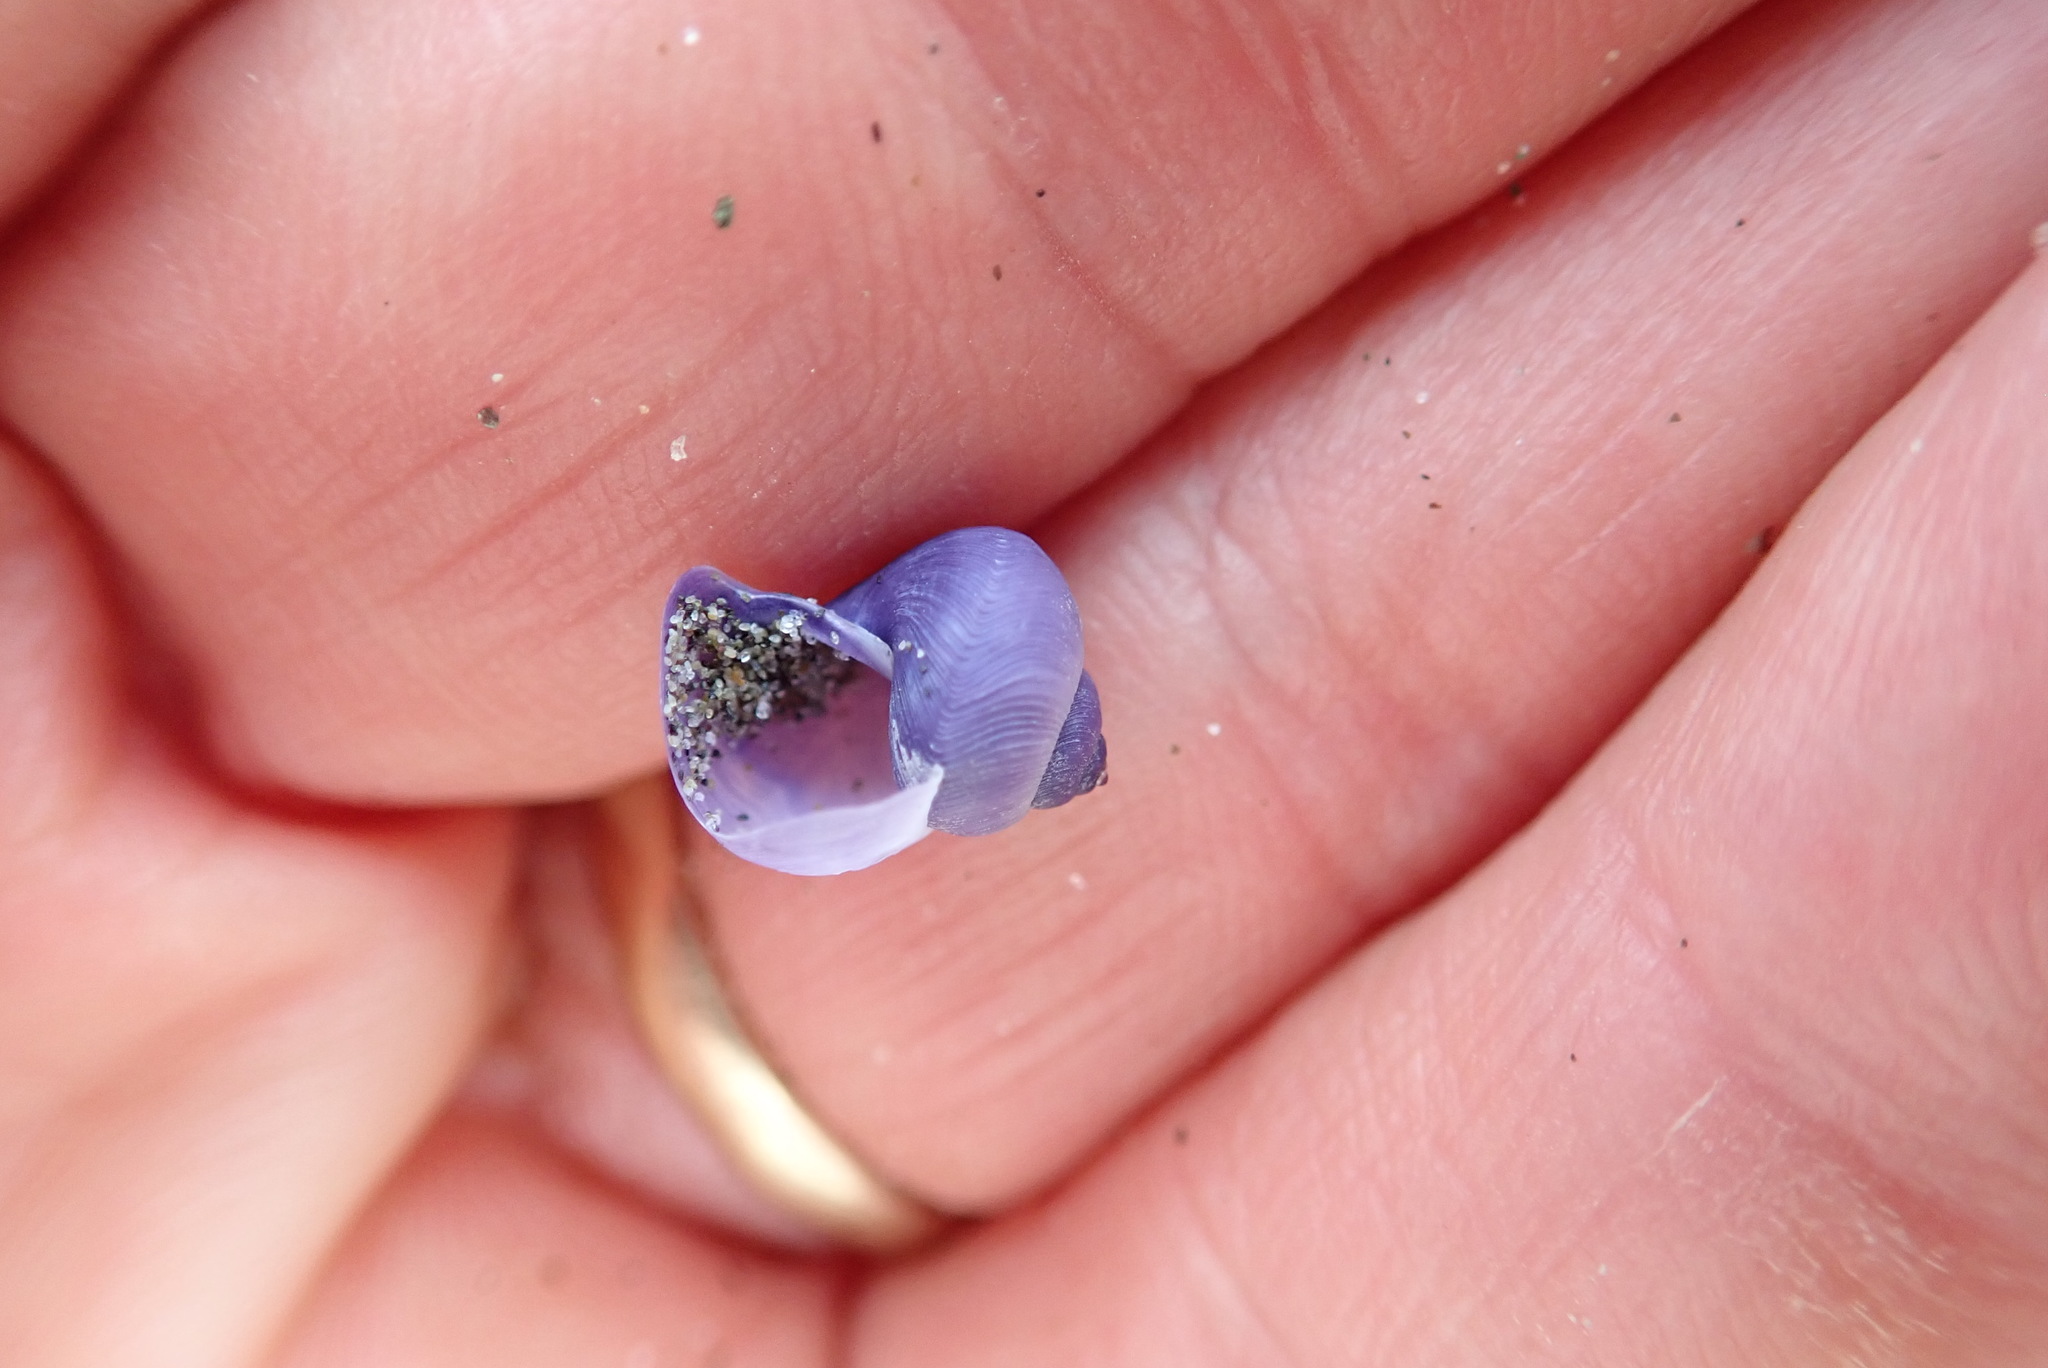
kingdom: Animalia
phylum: Mollusca
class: Gastropoda
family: Epitoniidae
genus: Janthina
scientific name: Janthina exigua
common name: Dwarf janthina
